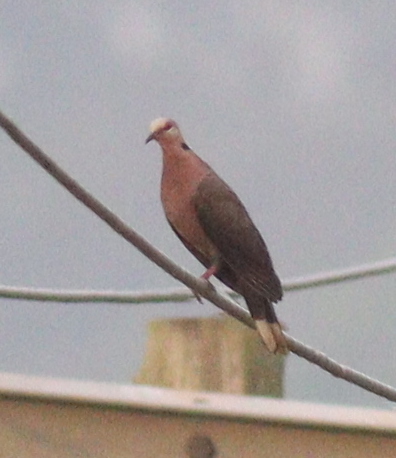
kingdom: Animalia
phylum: Chordata
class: Aves
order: Columbiformes
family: Columbidae
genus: Streptopelia
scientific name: Streptopelia semitorquata
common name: Red-eyed dove
